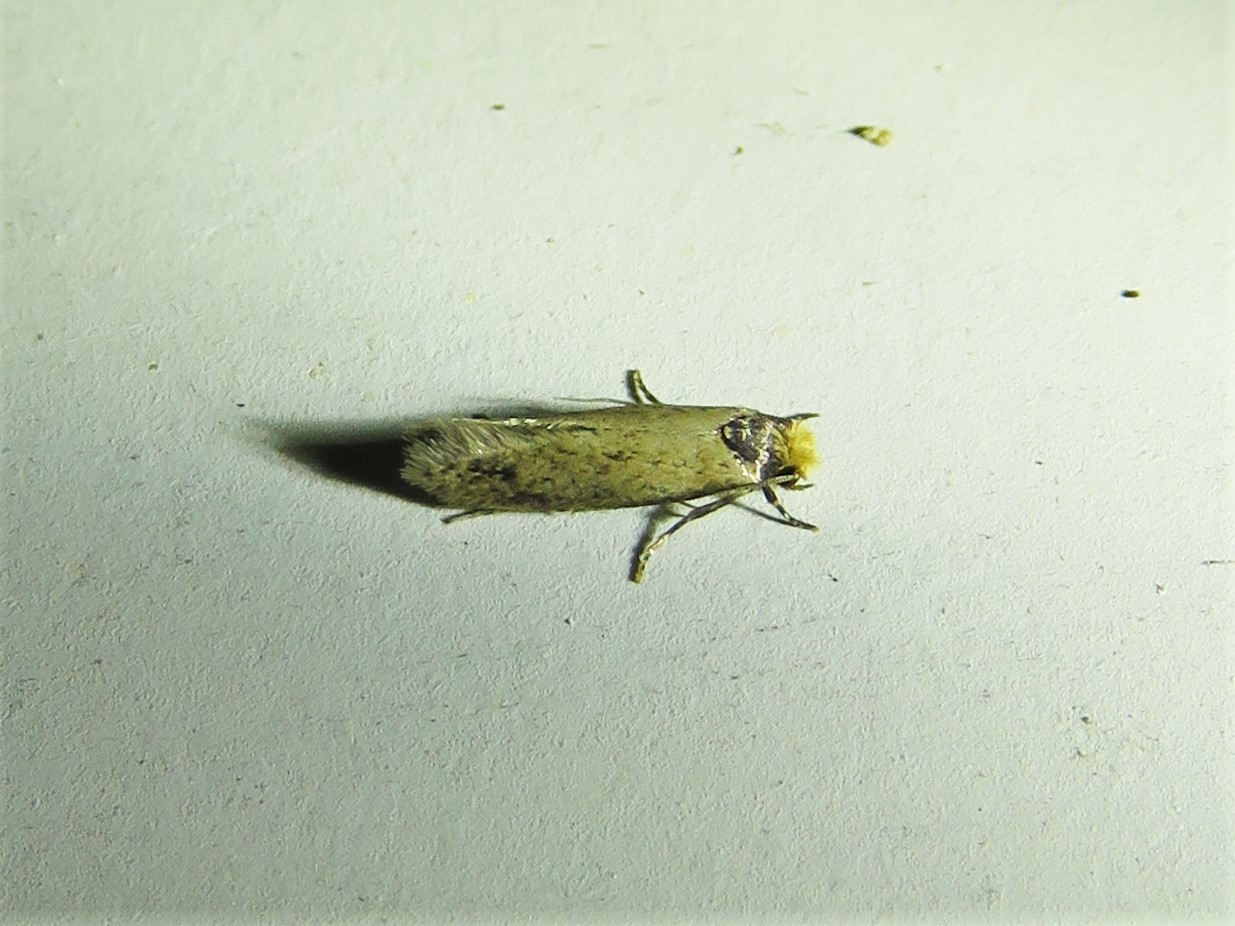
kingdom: Animalia
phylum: Arthropoda
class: Insecta
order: Lepidoptera
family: Meessiidae
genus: Homostinea
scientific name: Homostinea curviliniella
